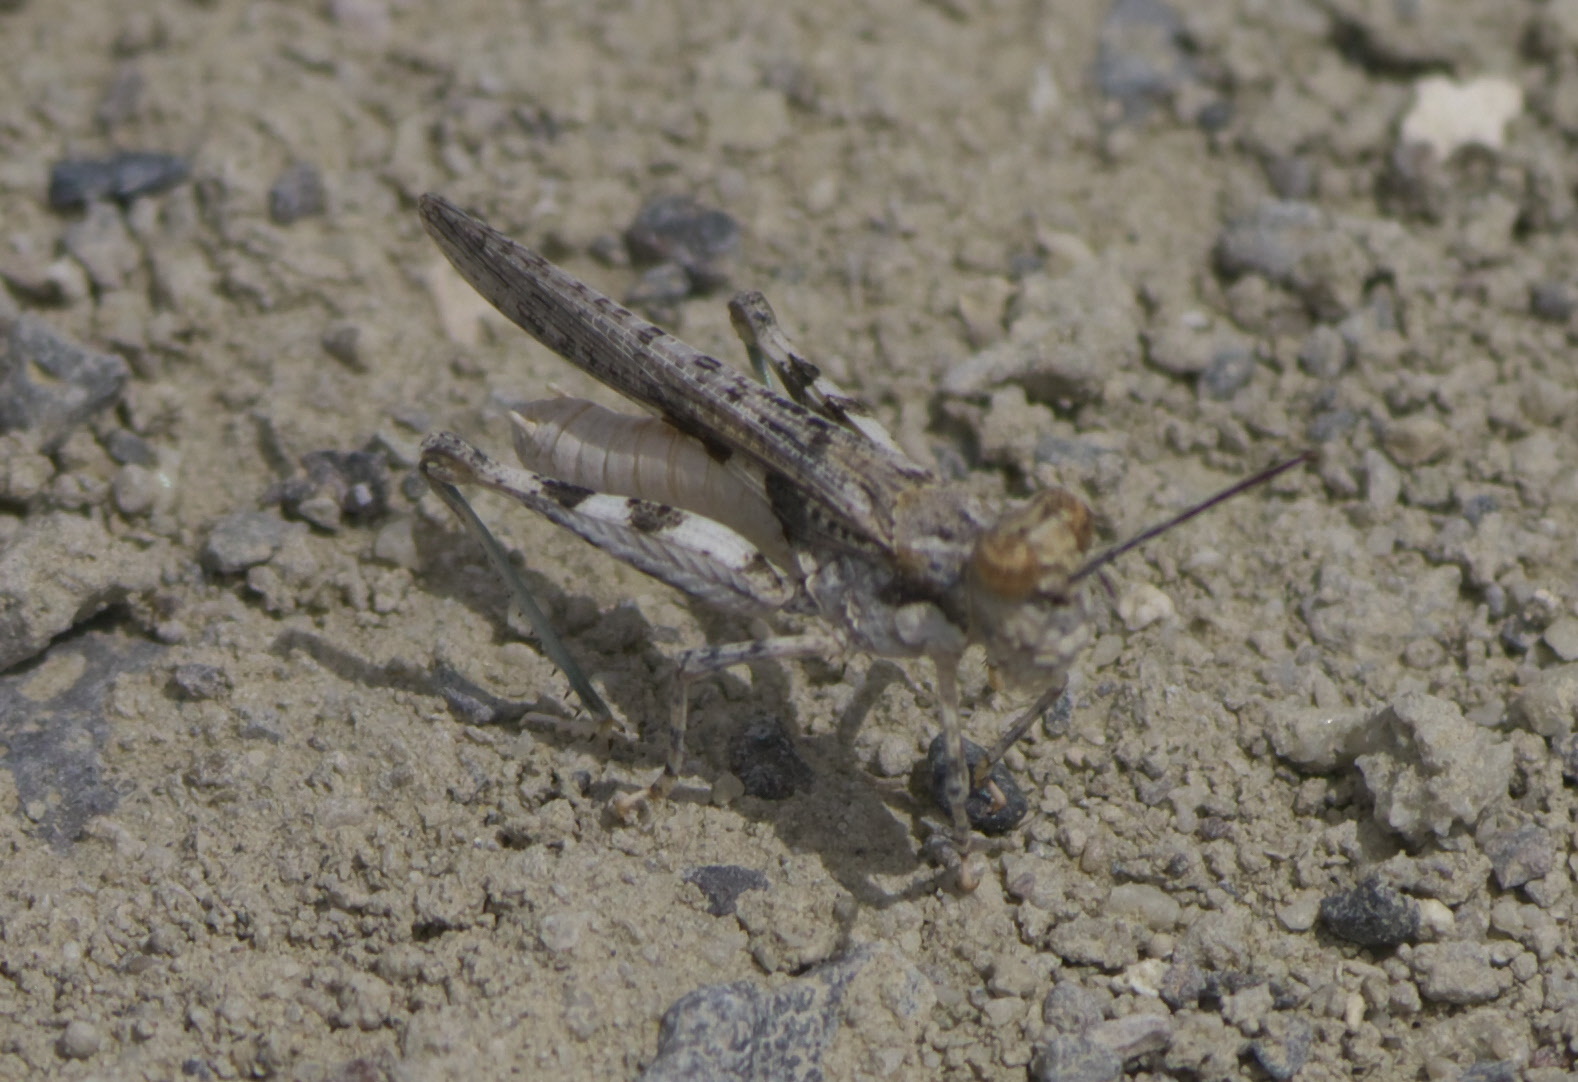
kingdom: Animalia
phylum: Arthropoda
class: Insecta
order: Orthoptera
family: Acrididae
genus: Trepidulus
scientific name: Trepidulus rosaceus
